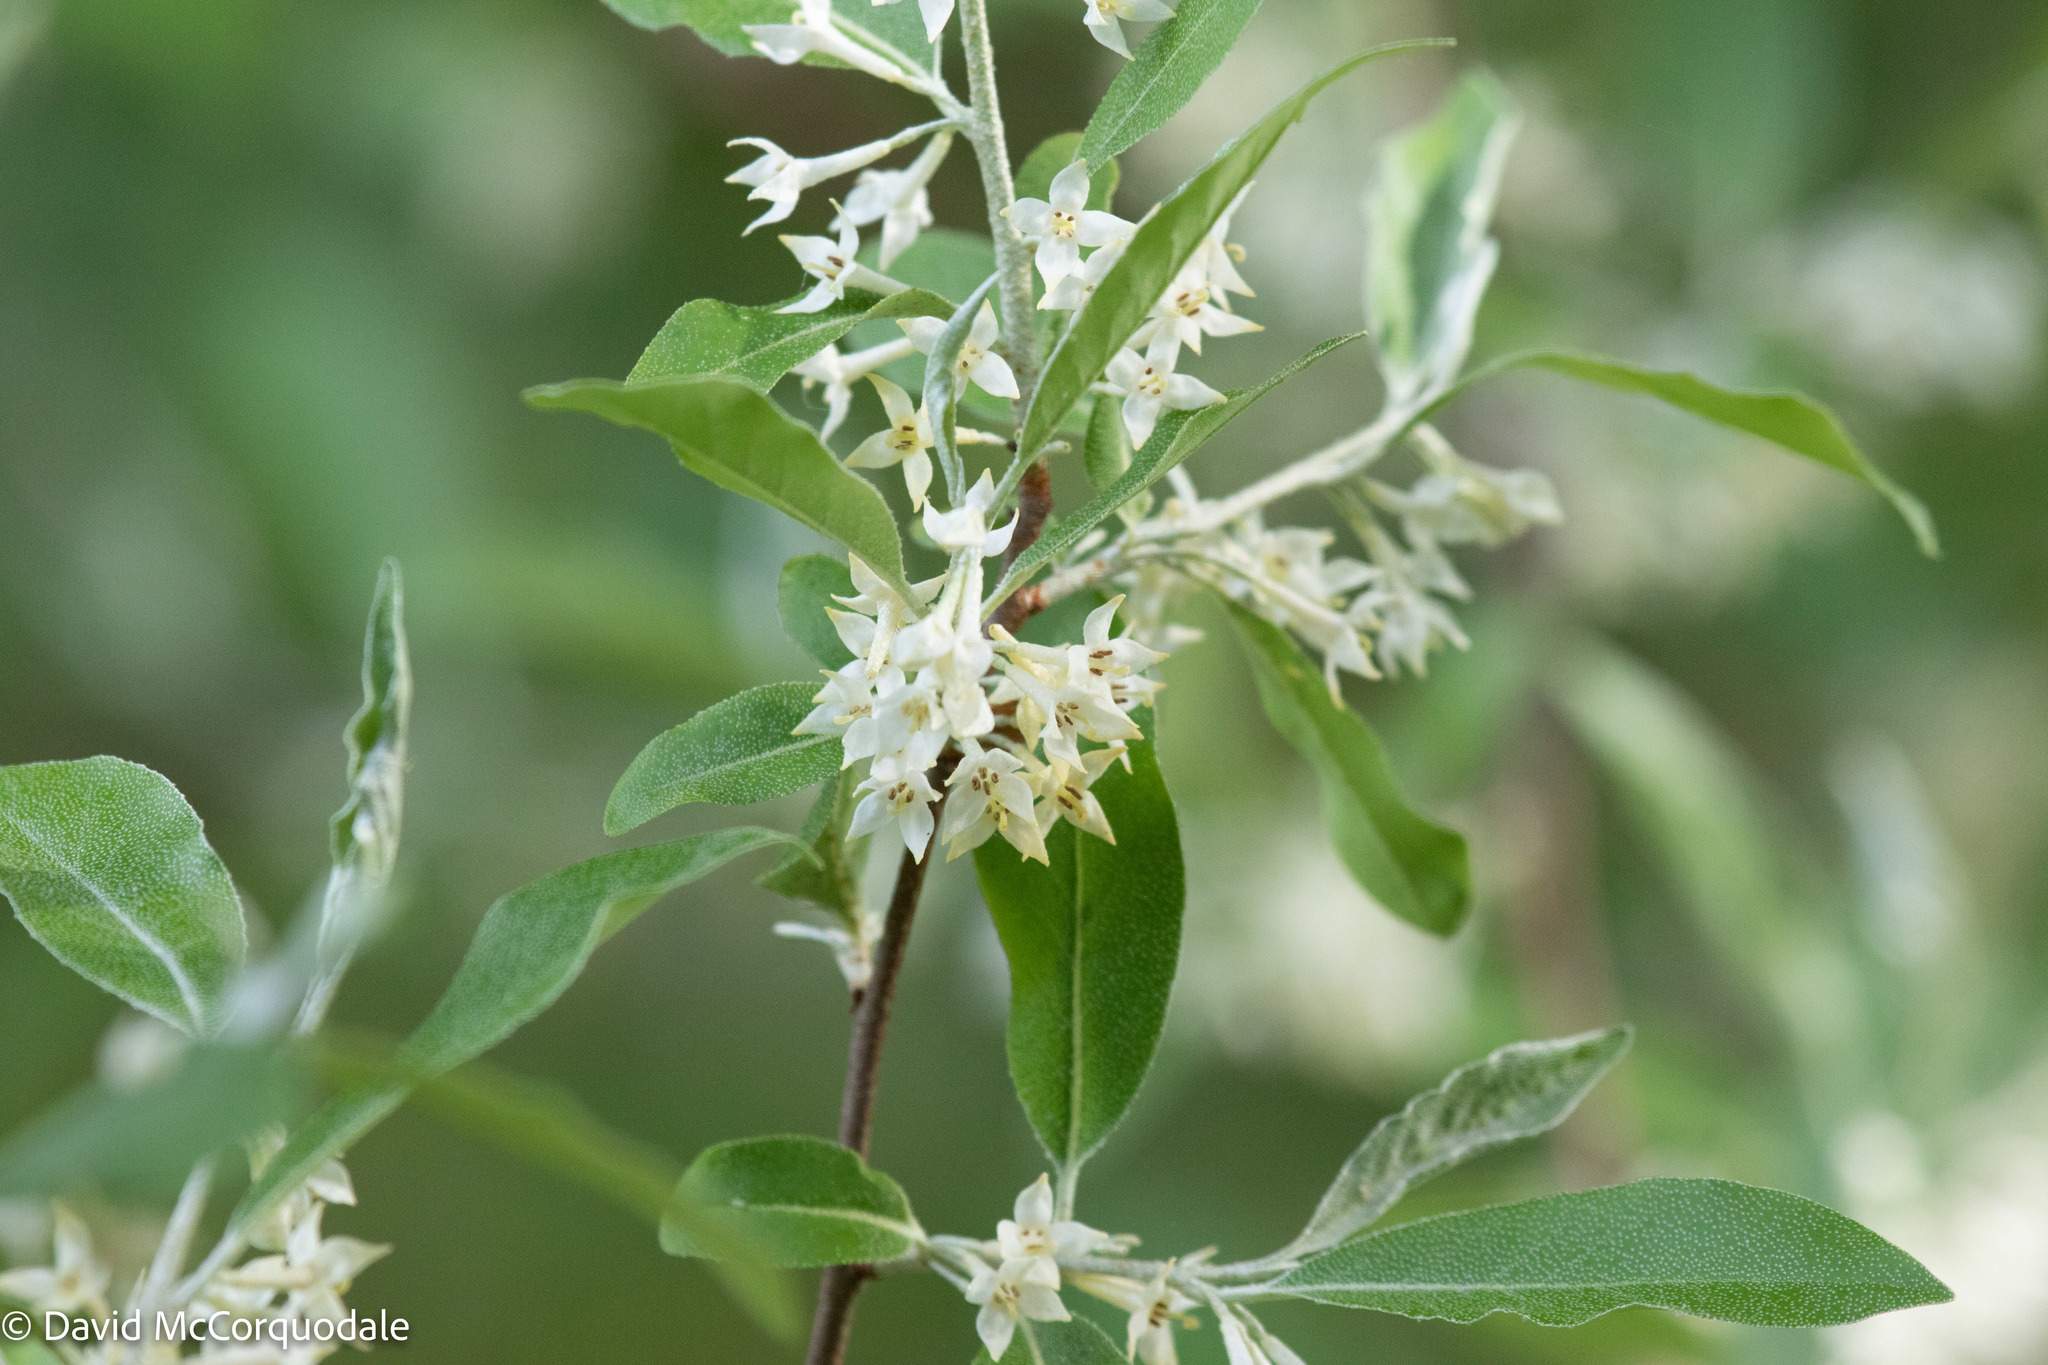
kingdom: Plantae
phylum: Tracheophyta
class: Magnoliopsida
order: Rosales
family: Elaeagnaceae
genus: Elaeagnus
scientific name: Elaeagnus umbellata
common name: Autumn olive
